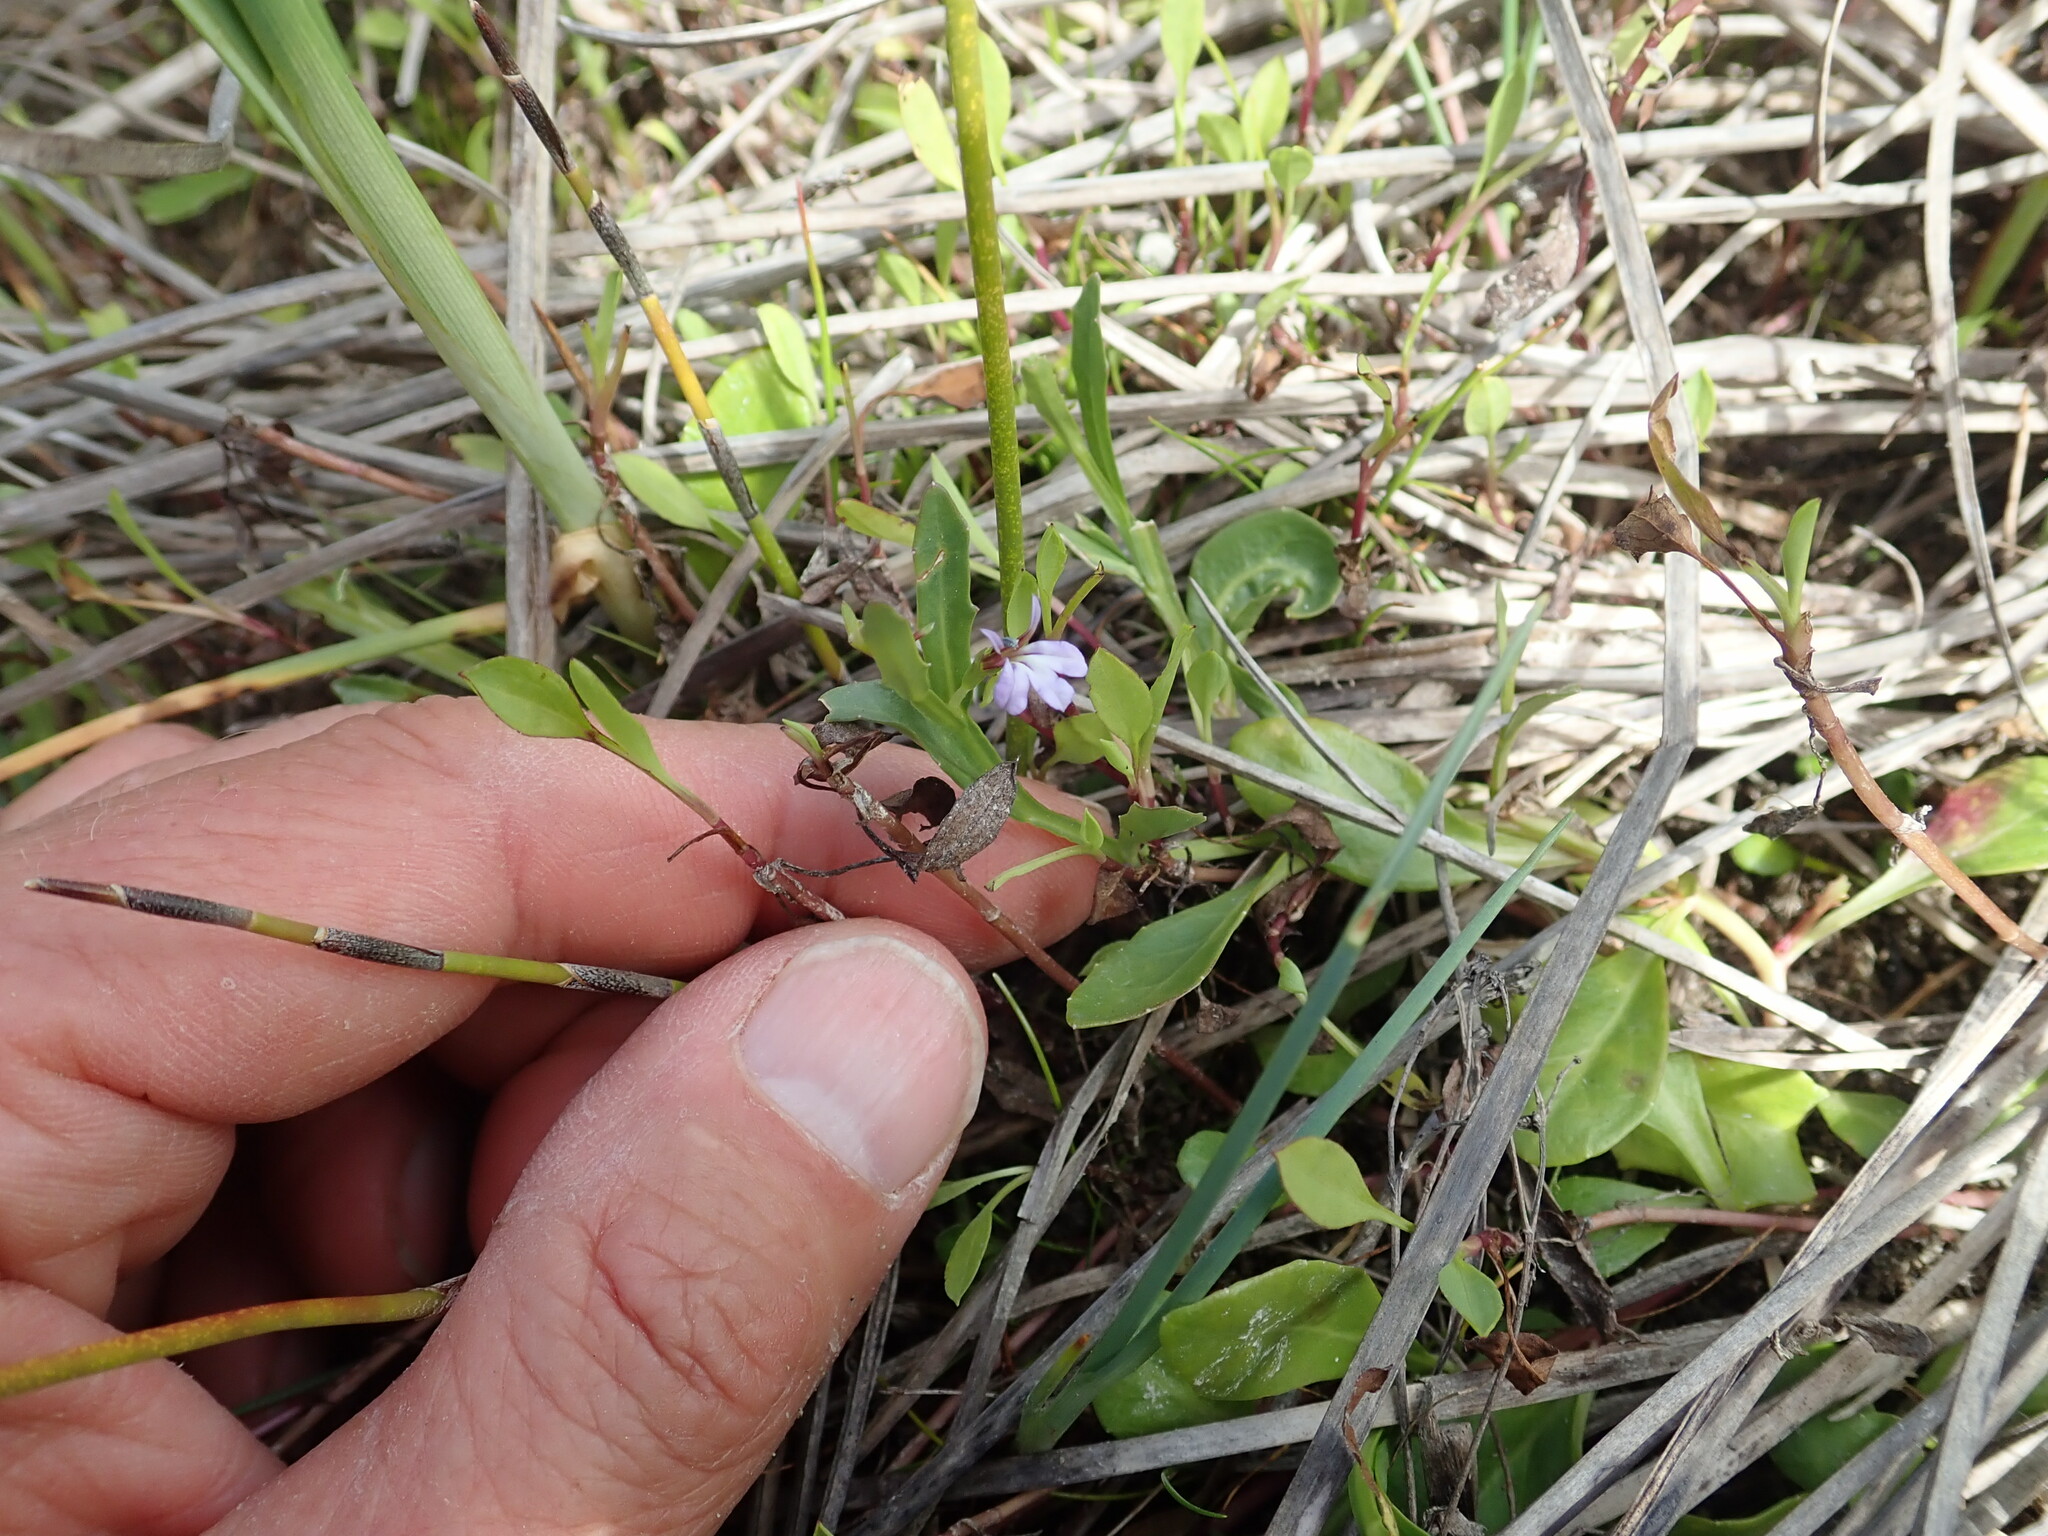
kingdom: Plantae
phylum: Tracheophyta
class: Magnoliopsida
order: Asterales
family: Campanulaceae
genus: Lobelia
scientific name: Lobelia anceps
